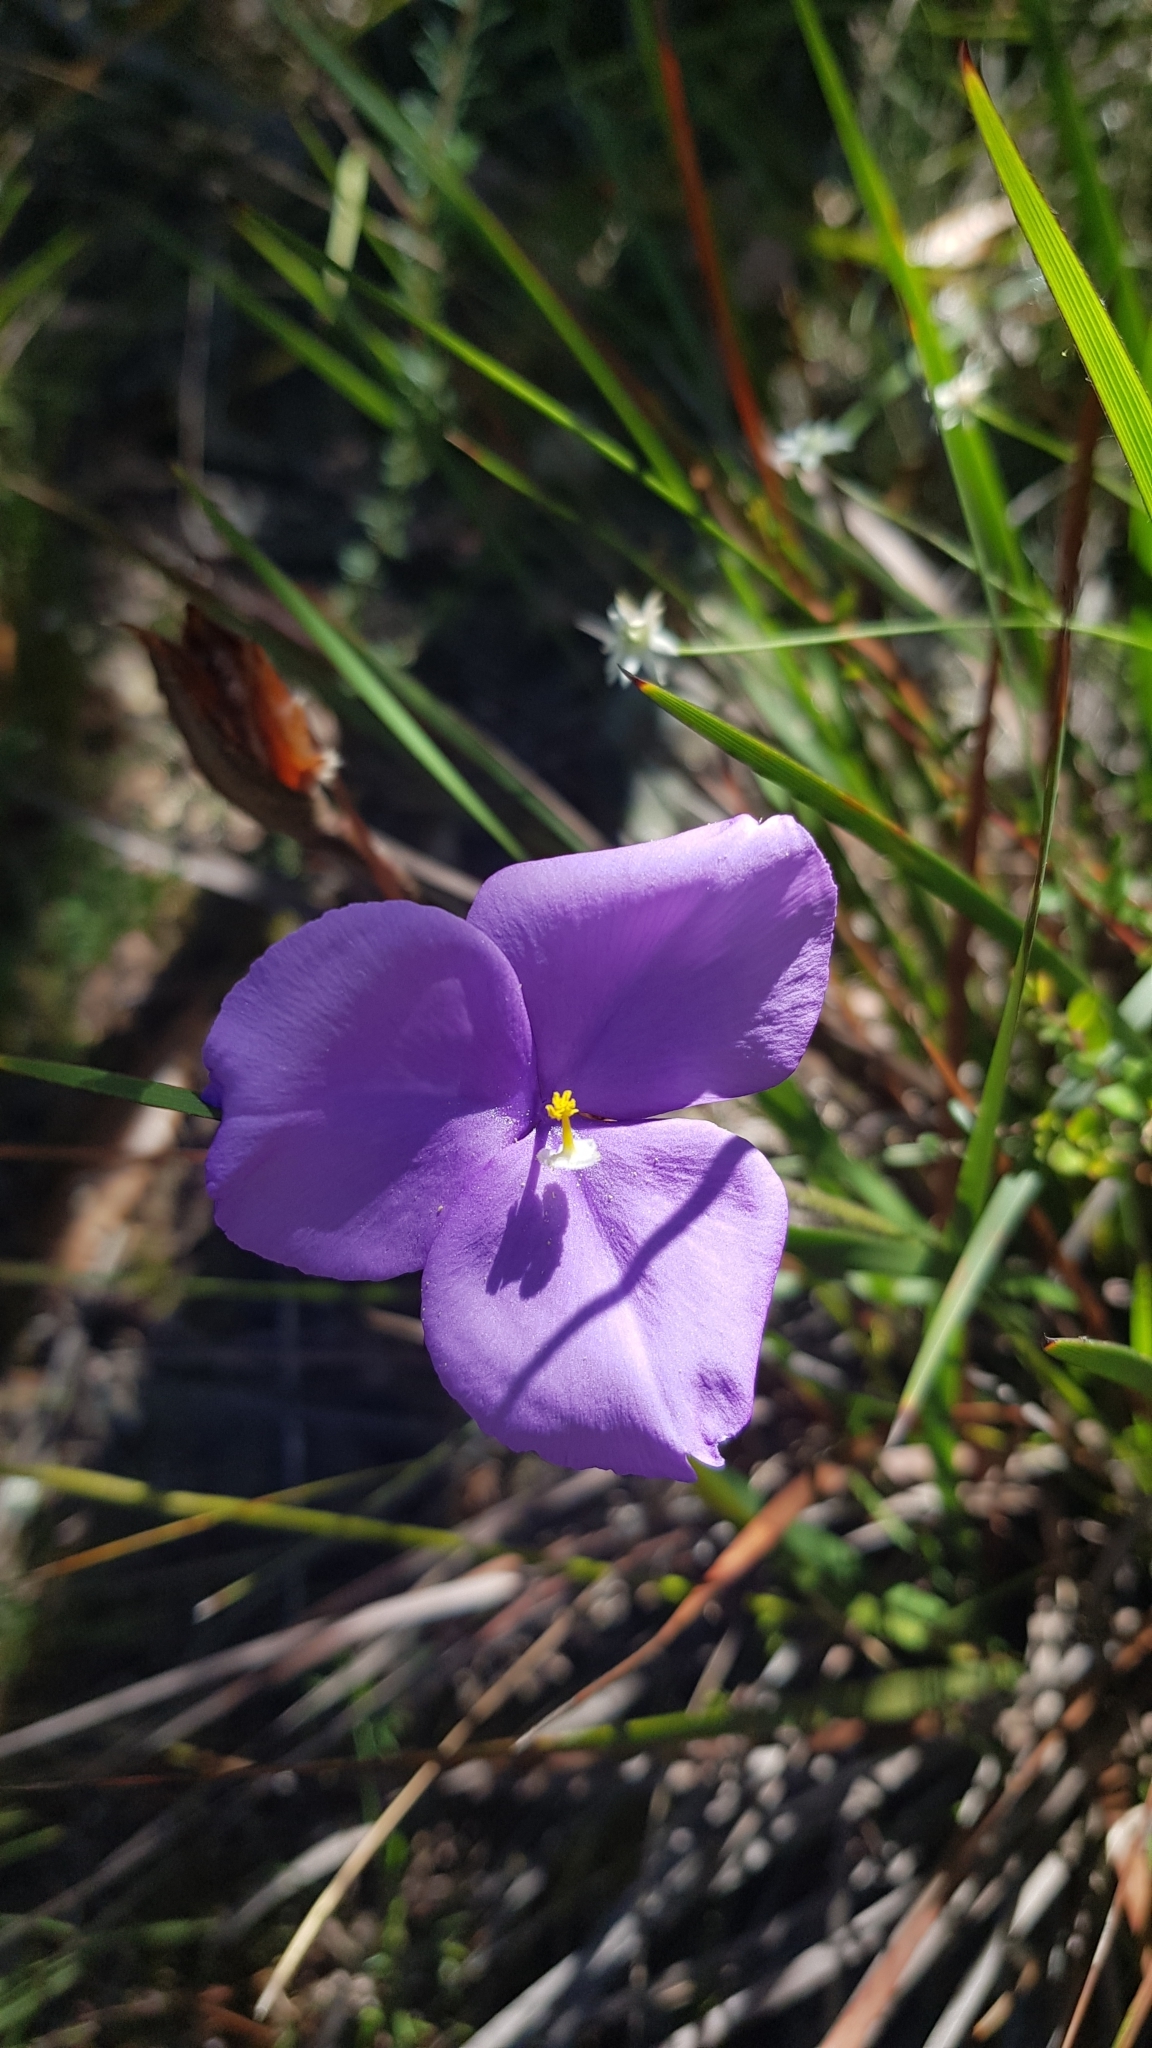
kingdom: Plantae
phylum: Tracheophyta
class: Liliopsida
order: Asparagales
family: Iridaceae
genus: Patersonia
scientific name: Patersonia sericea
